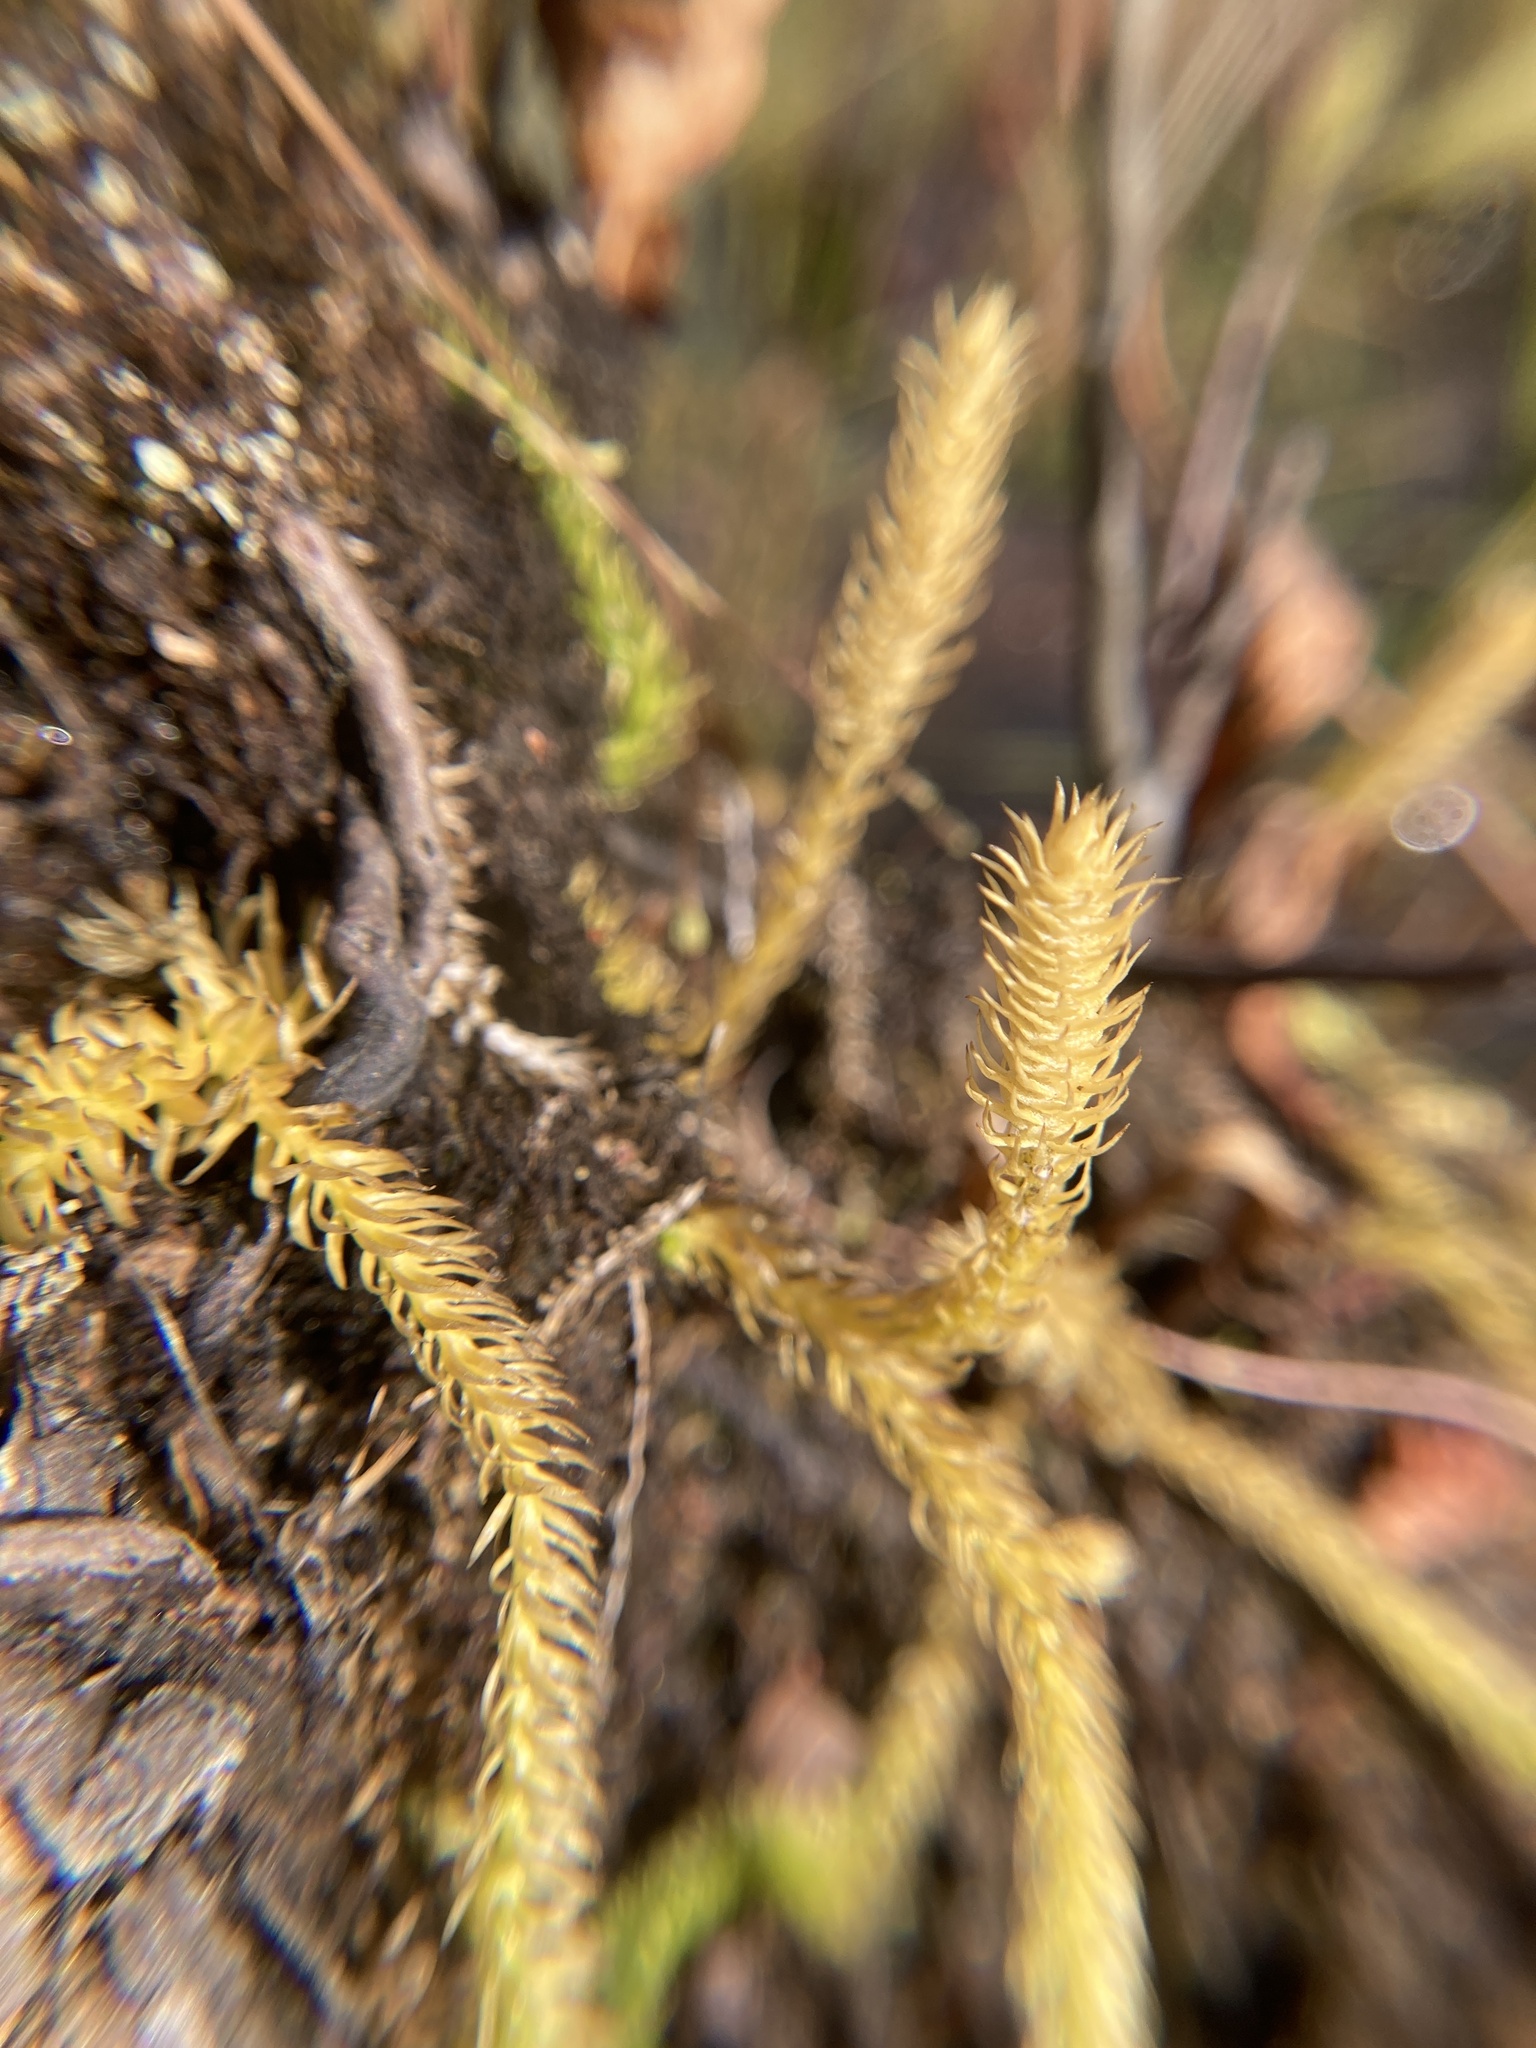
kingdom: Plantae
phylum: Tracheophyta
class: Lycopodiopsida
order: Lycopodiales
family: Lycopodiaceae
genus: Lycopodiella
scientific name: Lycopodiella inundata
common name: Marsh clubmoss
